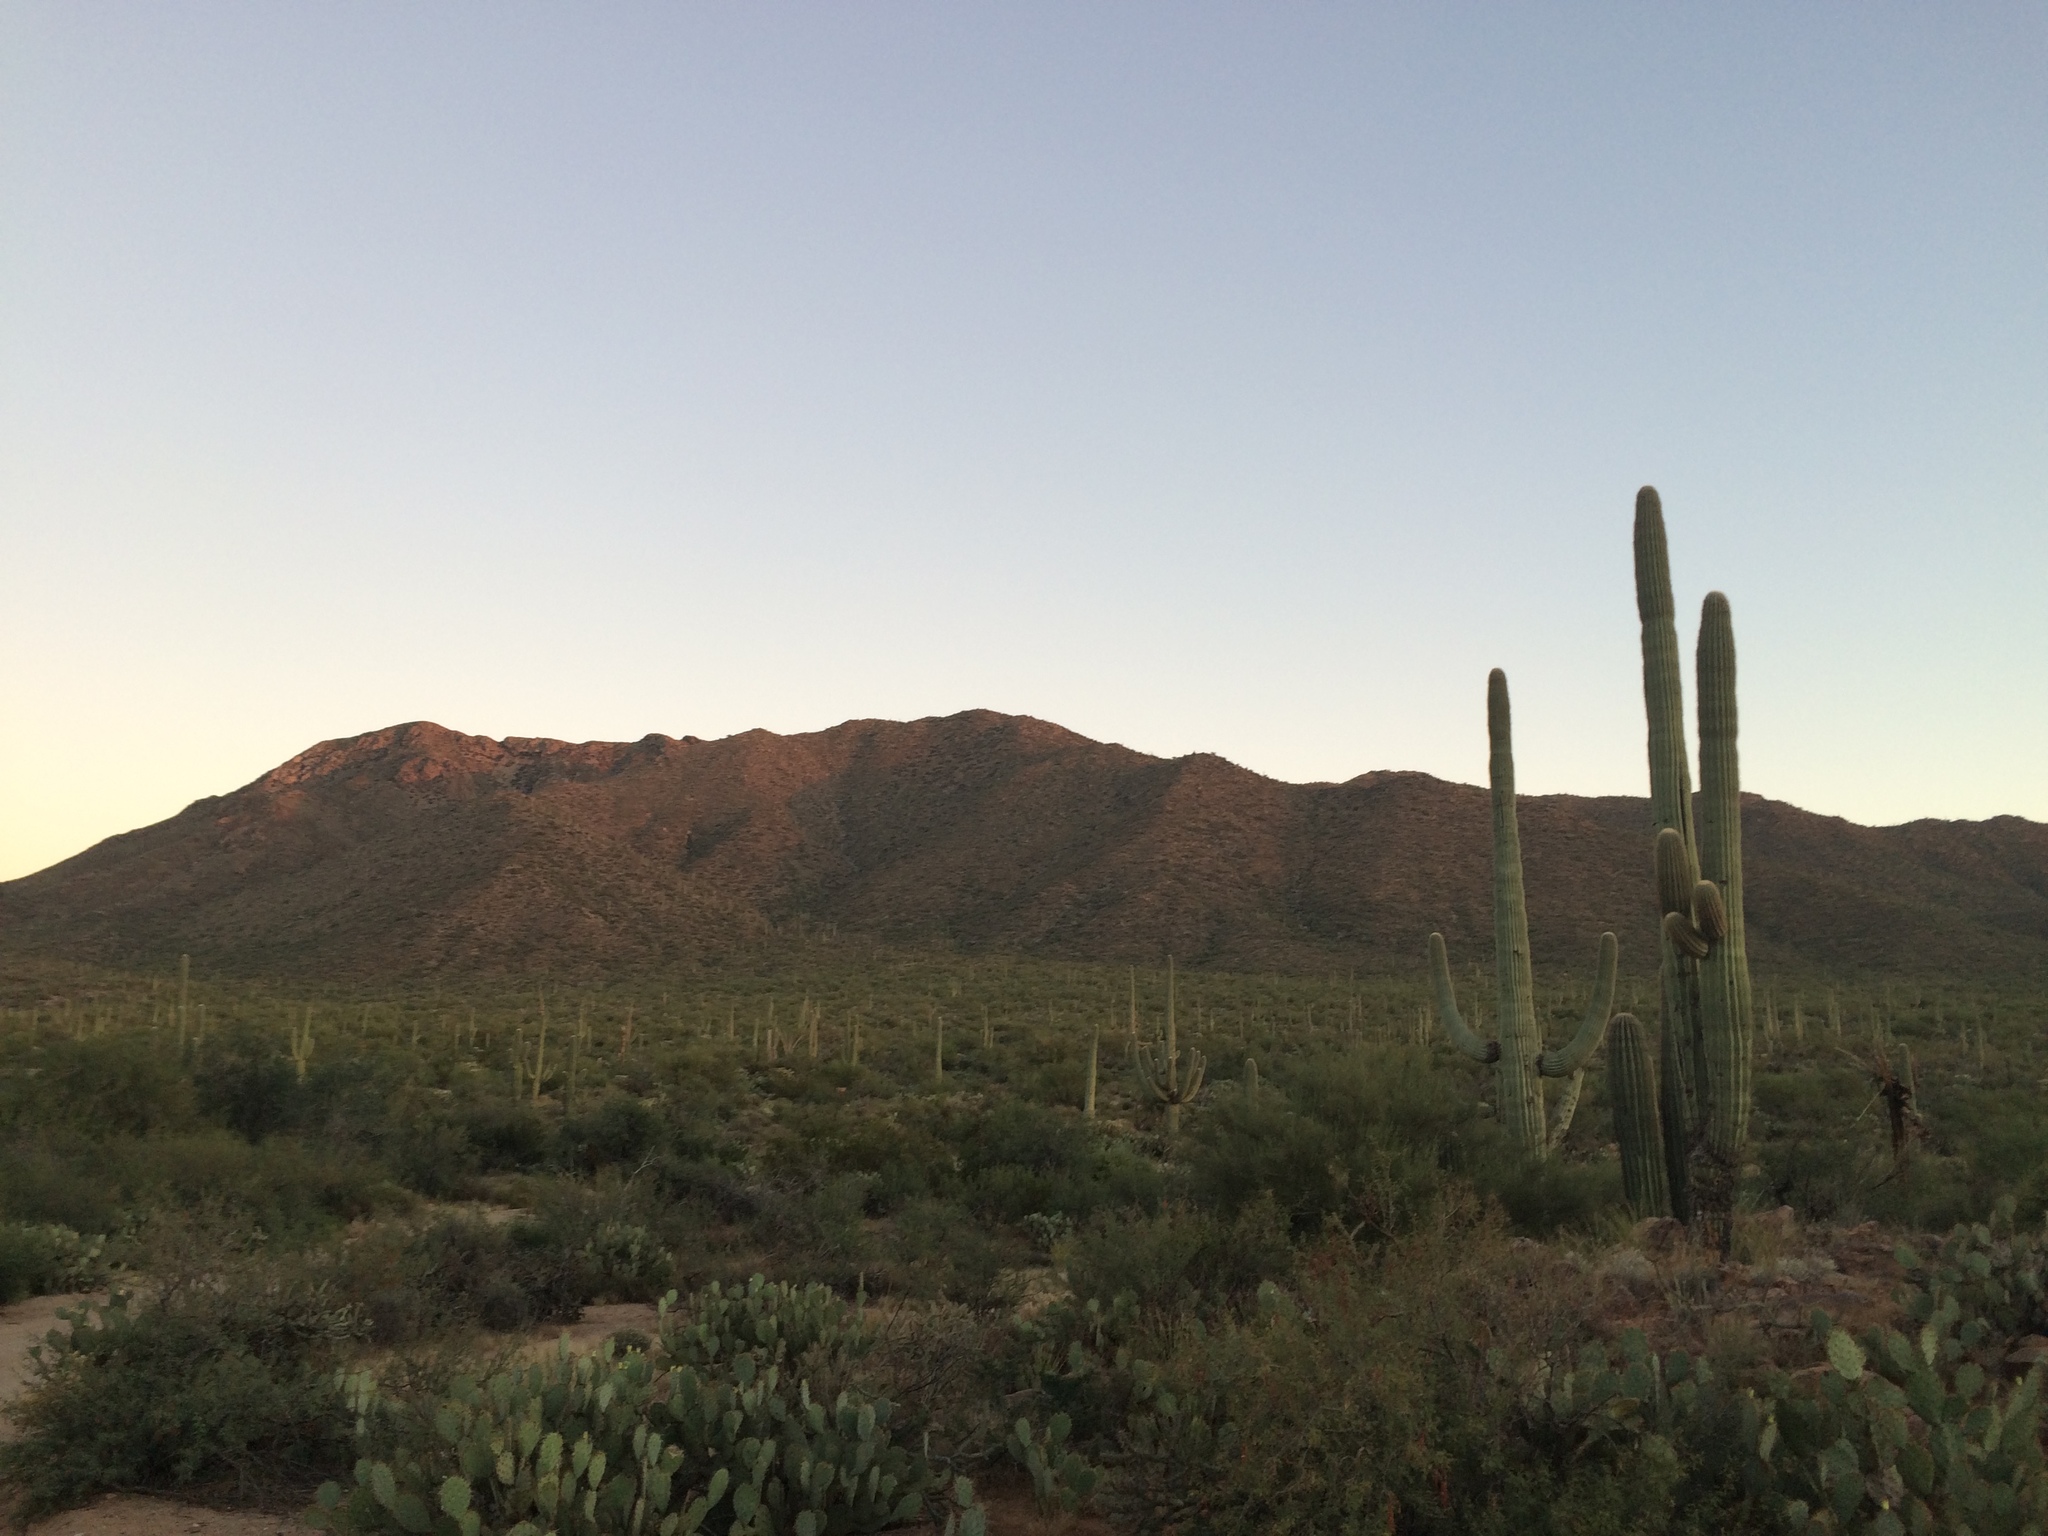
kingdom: Plantae
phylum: Tracheophyta
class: Magnoliopsida
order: Caryophyllales
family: Cactaceae
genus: Carnegiea
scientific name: Carnegiea gigantea
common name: Saguaro
